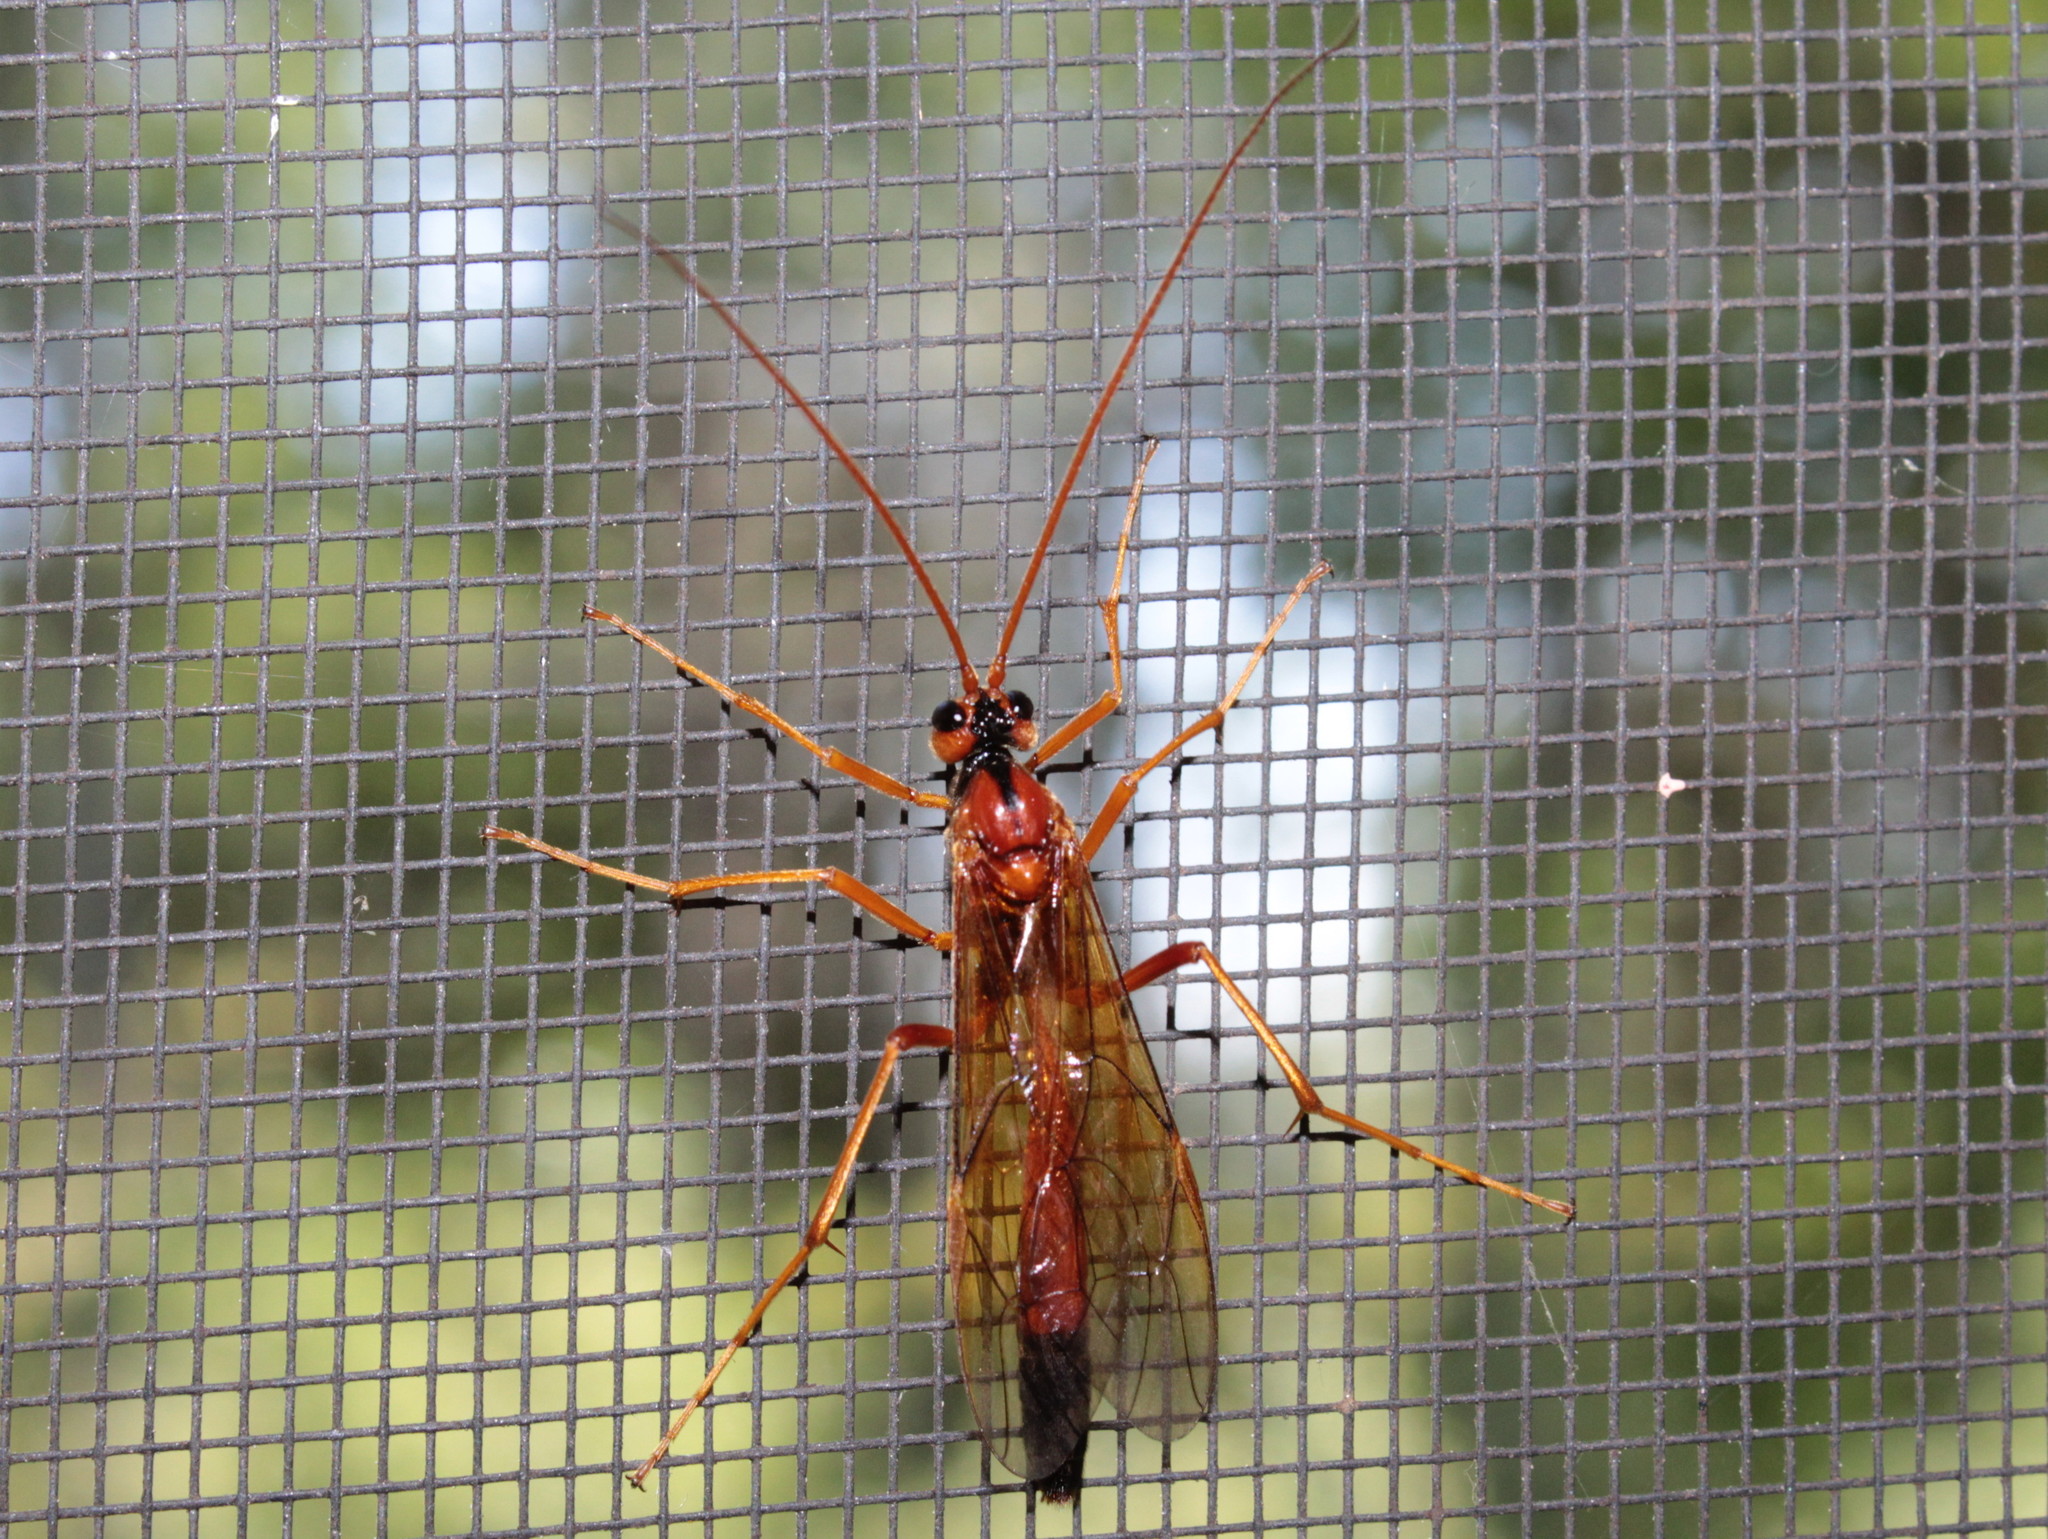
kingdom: Animalia
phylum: Arthropoda
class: Insecta
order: Hymenoptera
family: Ichneumonidae
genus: Opheltes
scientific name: Opheltes glaucopterus
